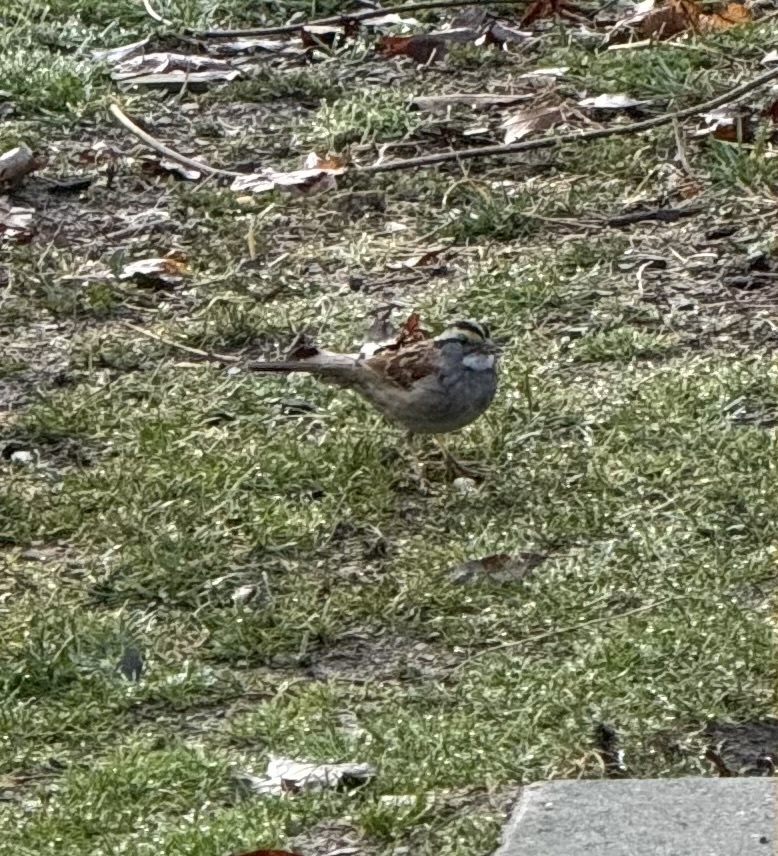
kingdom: Animalia
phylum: Chordata
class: Aves
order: Passeriformes
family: Passerellidae
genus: Zonotrichia
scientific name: Zonotrichia albicollis
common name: White-throated sparrow
